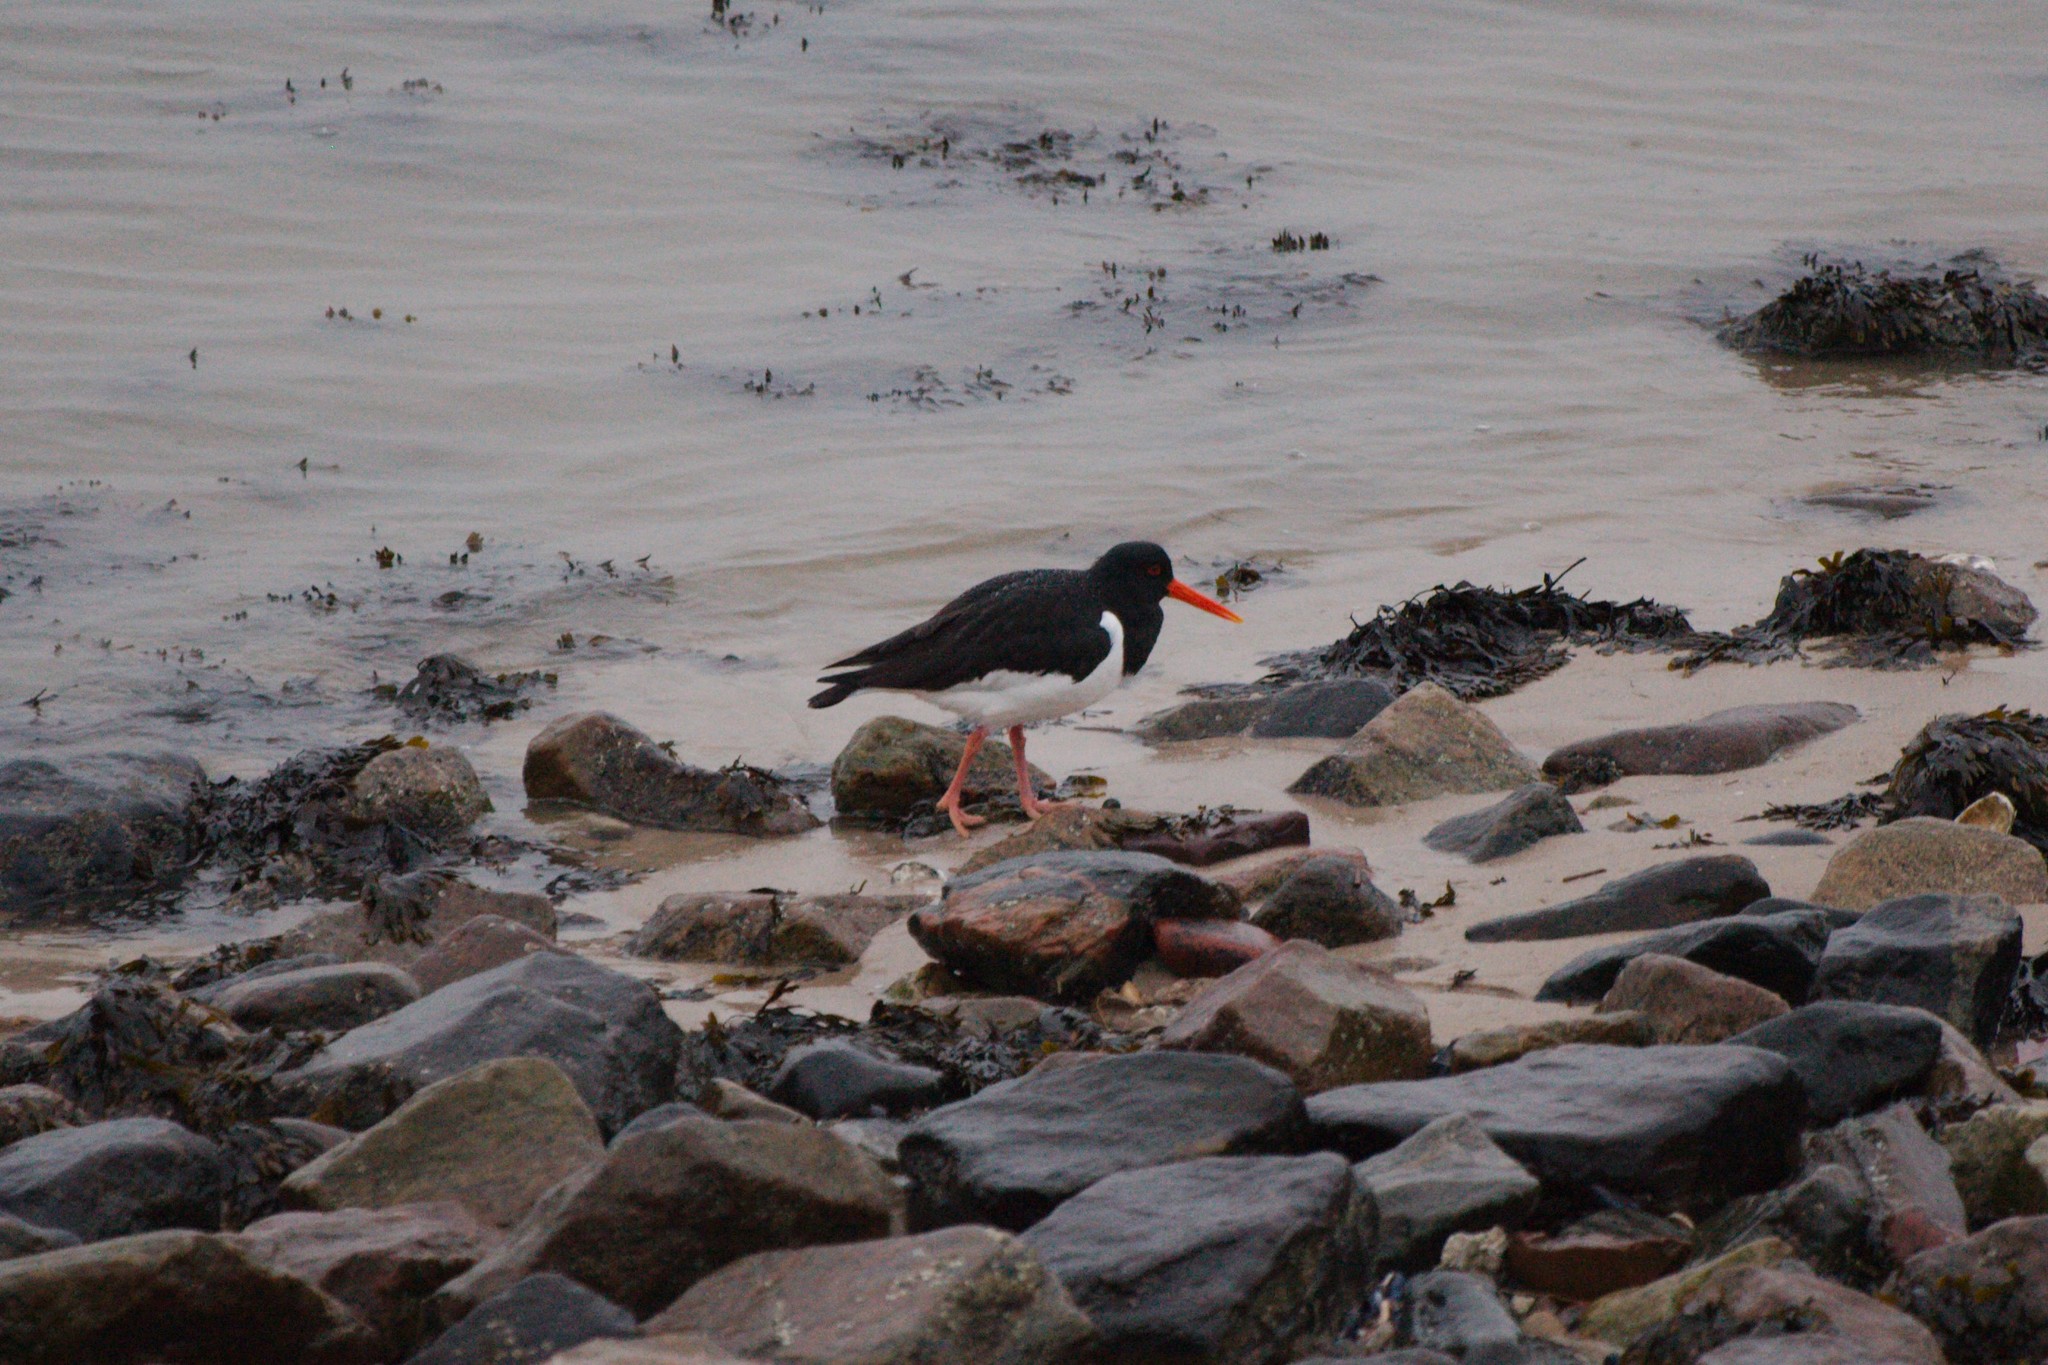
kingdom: Animalia
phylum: Chordata
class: Aves
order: Charadriiformes
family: Haematopodidae
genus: Haematopus
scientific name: Haematopus ostralegus
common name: Eurasian oystercatcher
